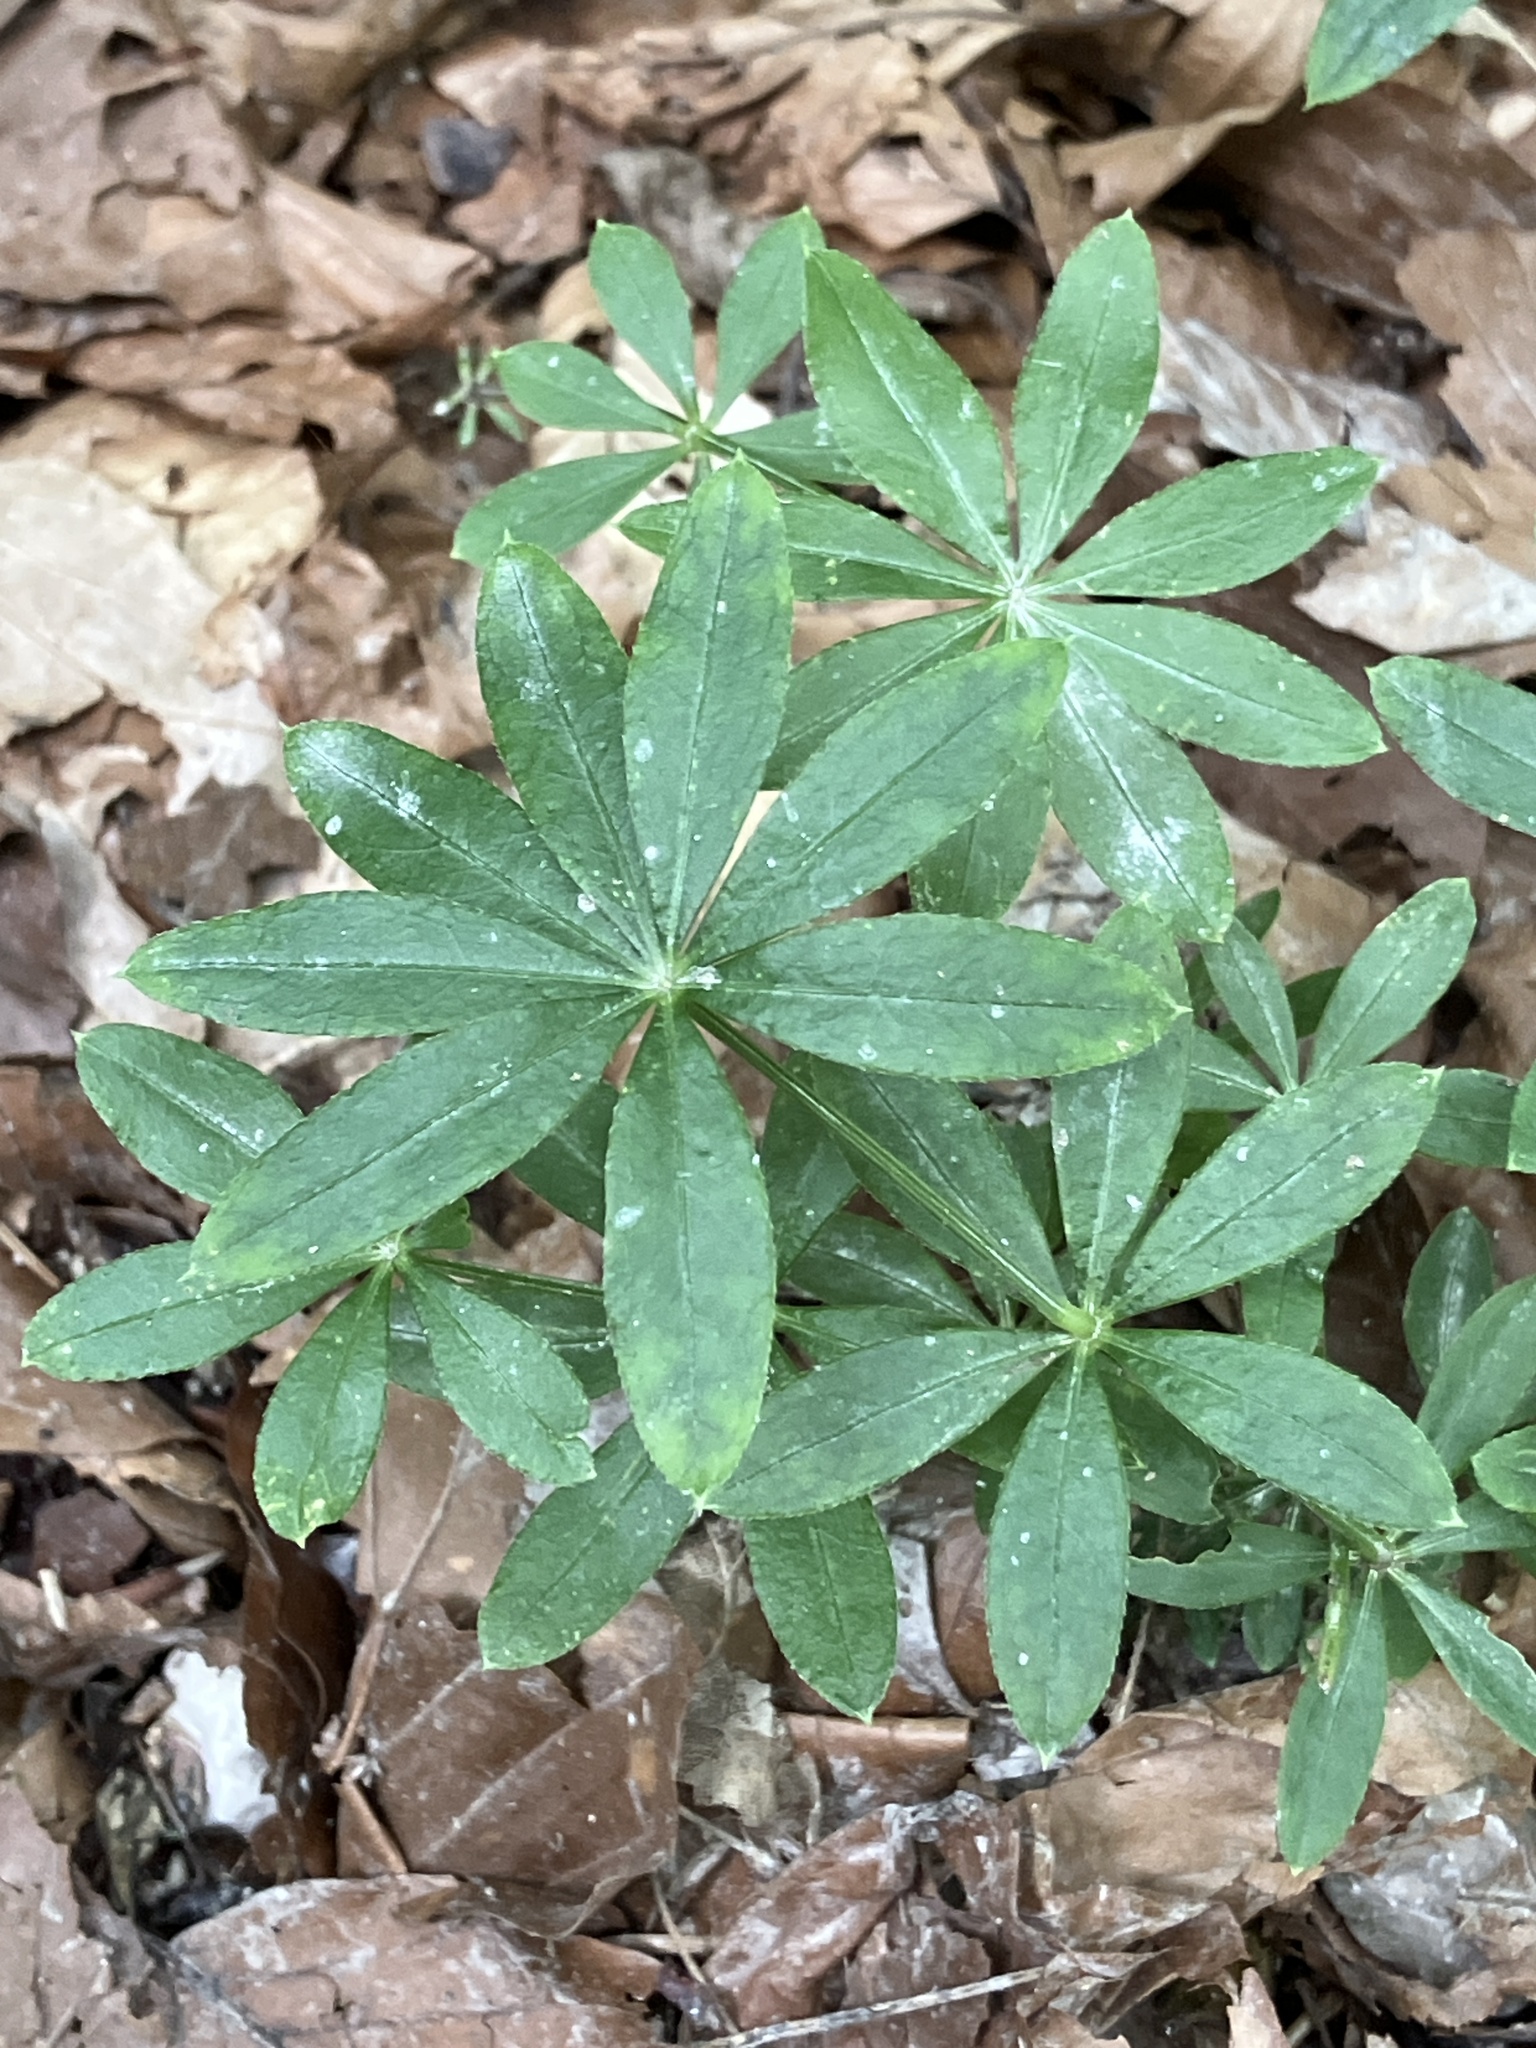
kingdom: Plantae
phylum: Tracheophyta
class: Magnoliopsida
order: Gentianales
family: Rubiaceae
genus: Galium
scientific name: Galium odoratum
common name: Sweet woodruff
